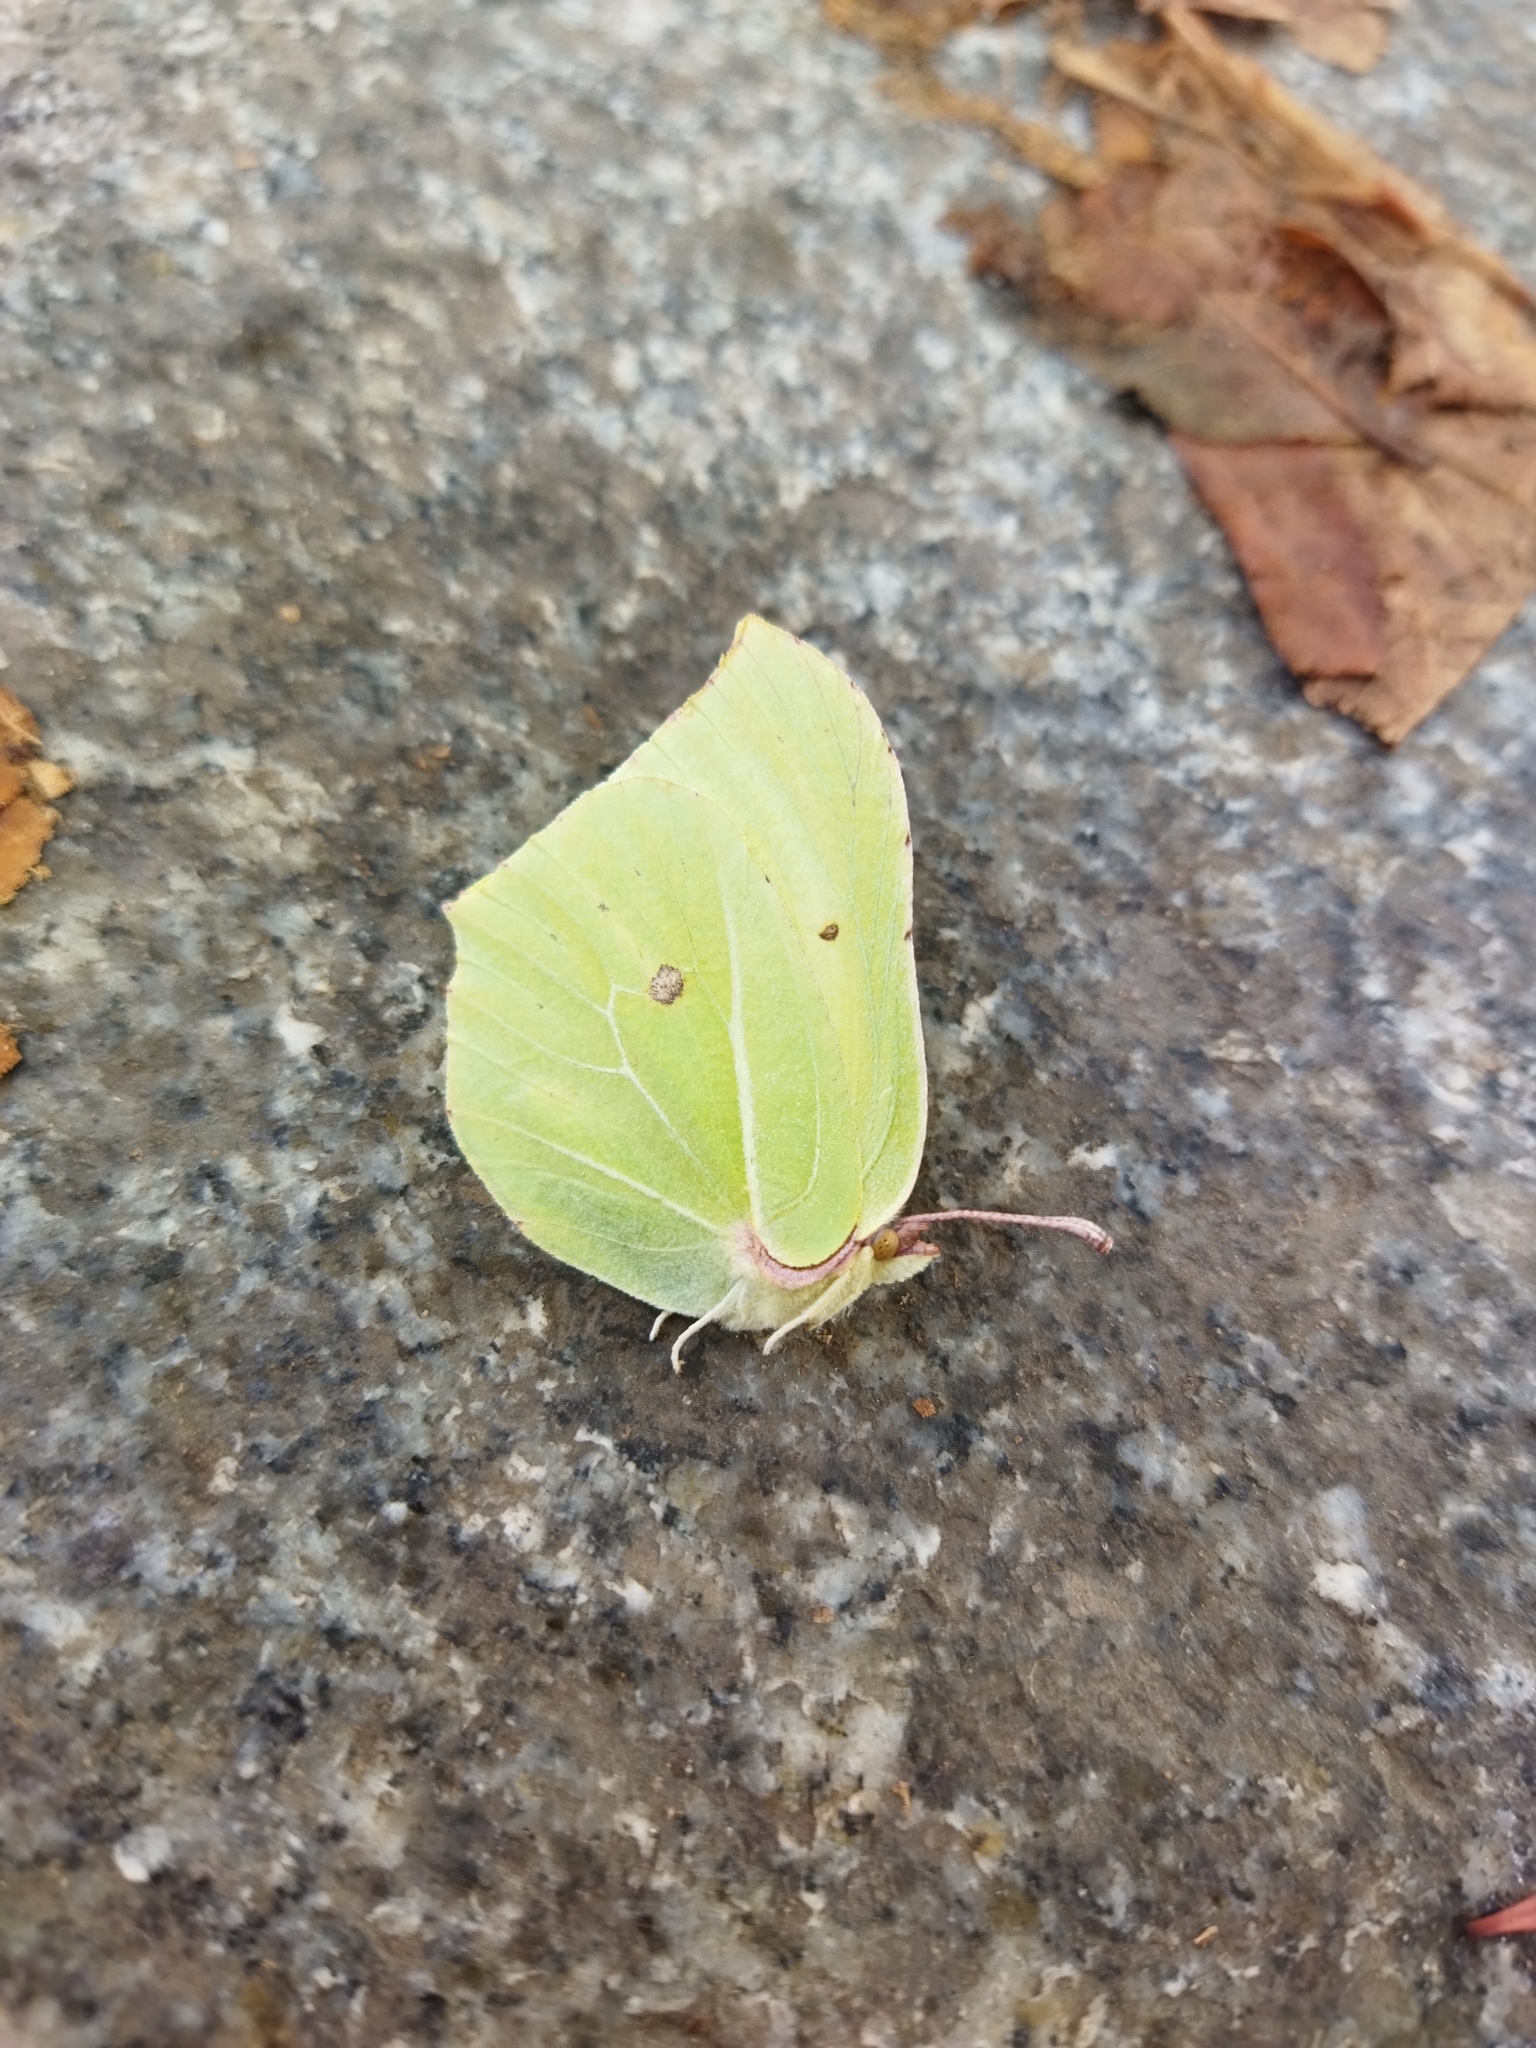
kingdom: Animalia
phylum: Arthropoda
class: Insecta
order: Lepidoptera
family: Pieridae
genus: Gonepteryx
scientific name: Gonepteryx rhamni
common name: Brimstone
